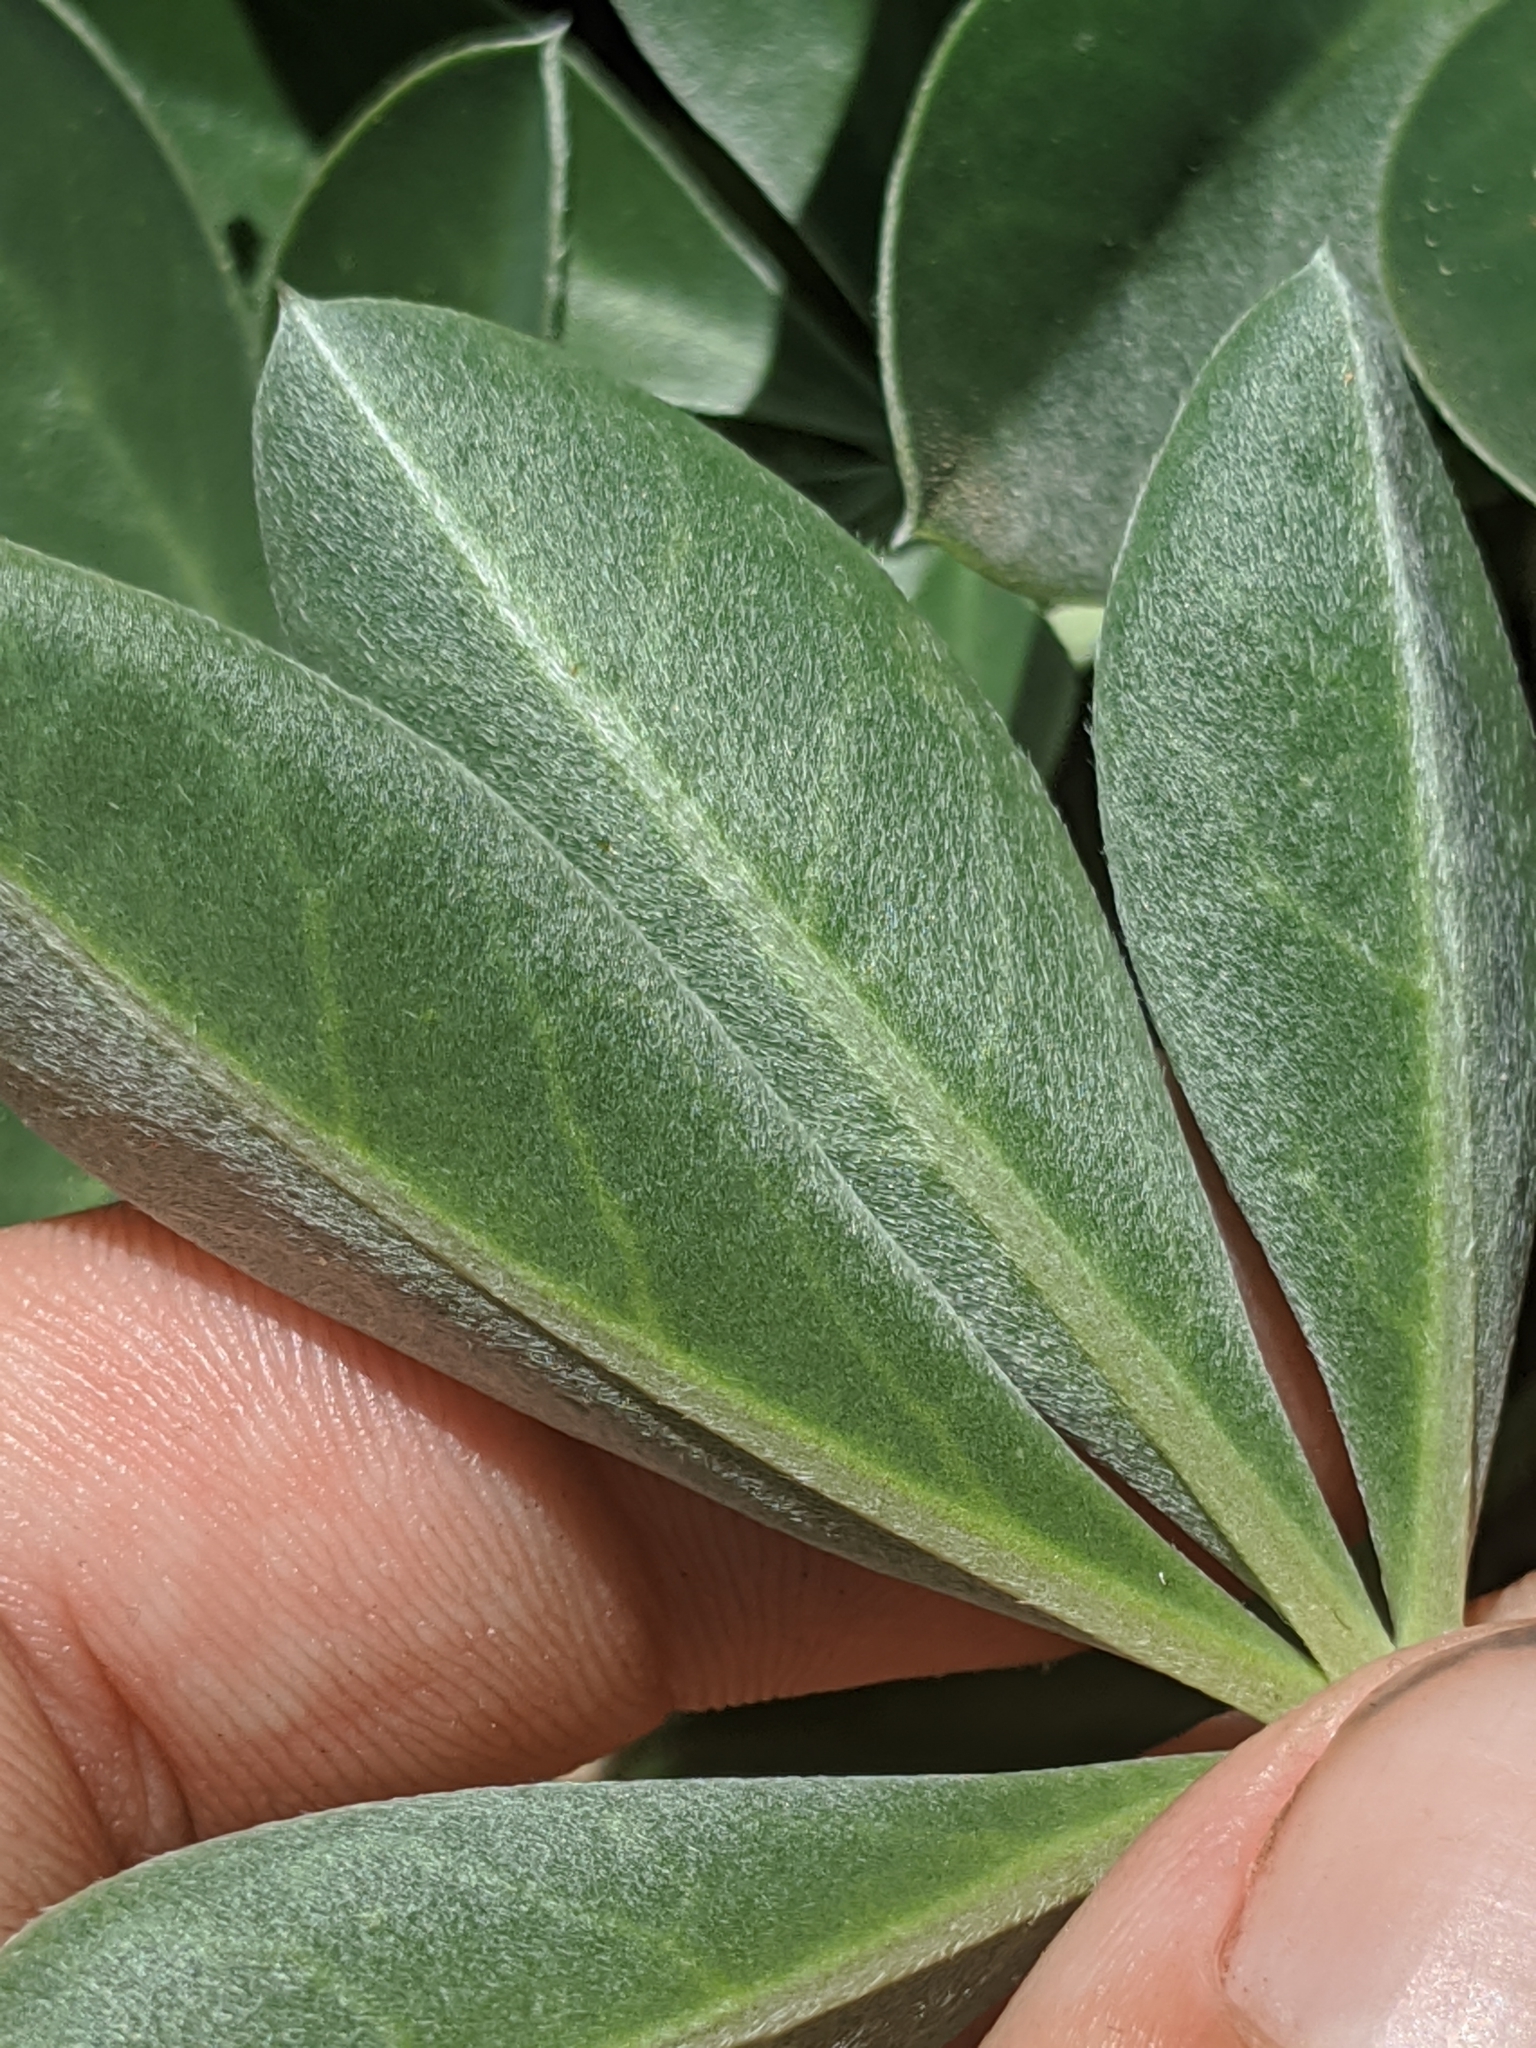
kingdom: Plantae
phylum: Tracheophyta
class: Magnoliopsida
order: Fabales
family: Fabaceae
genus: Lupinus
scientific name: Lupinus cervinus
